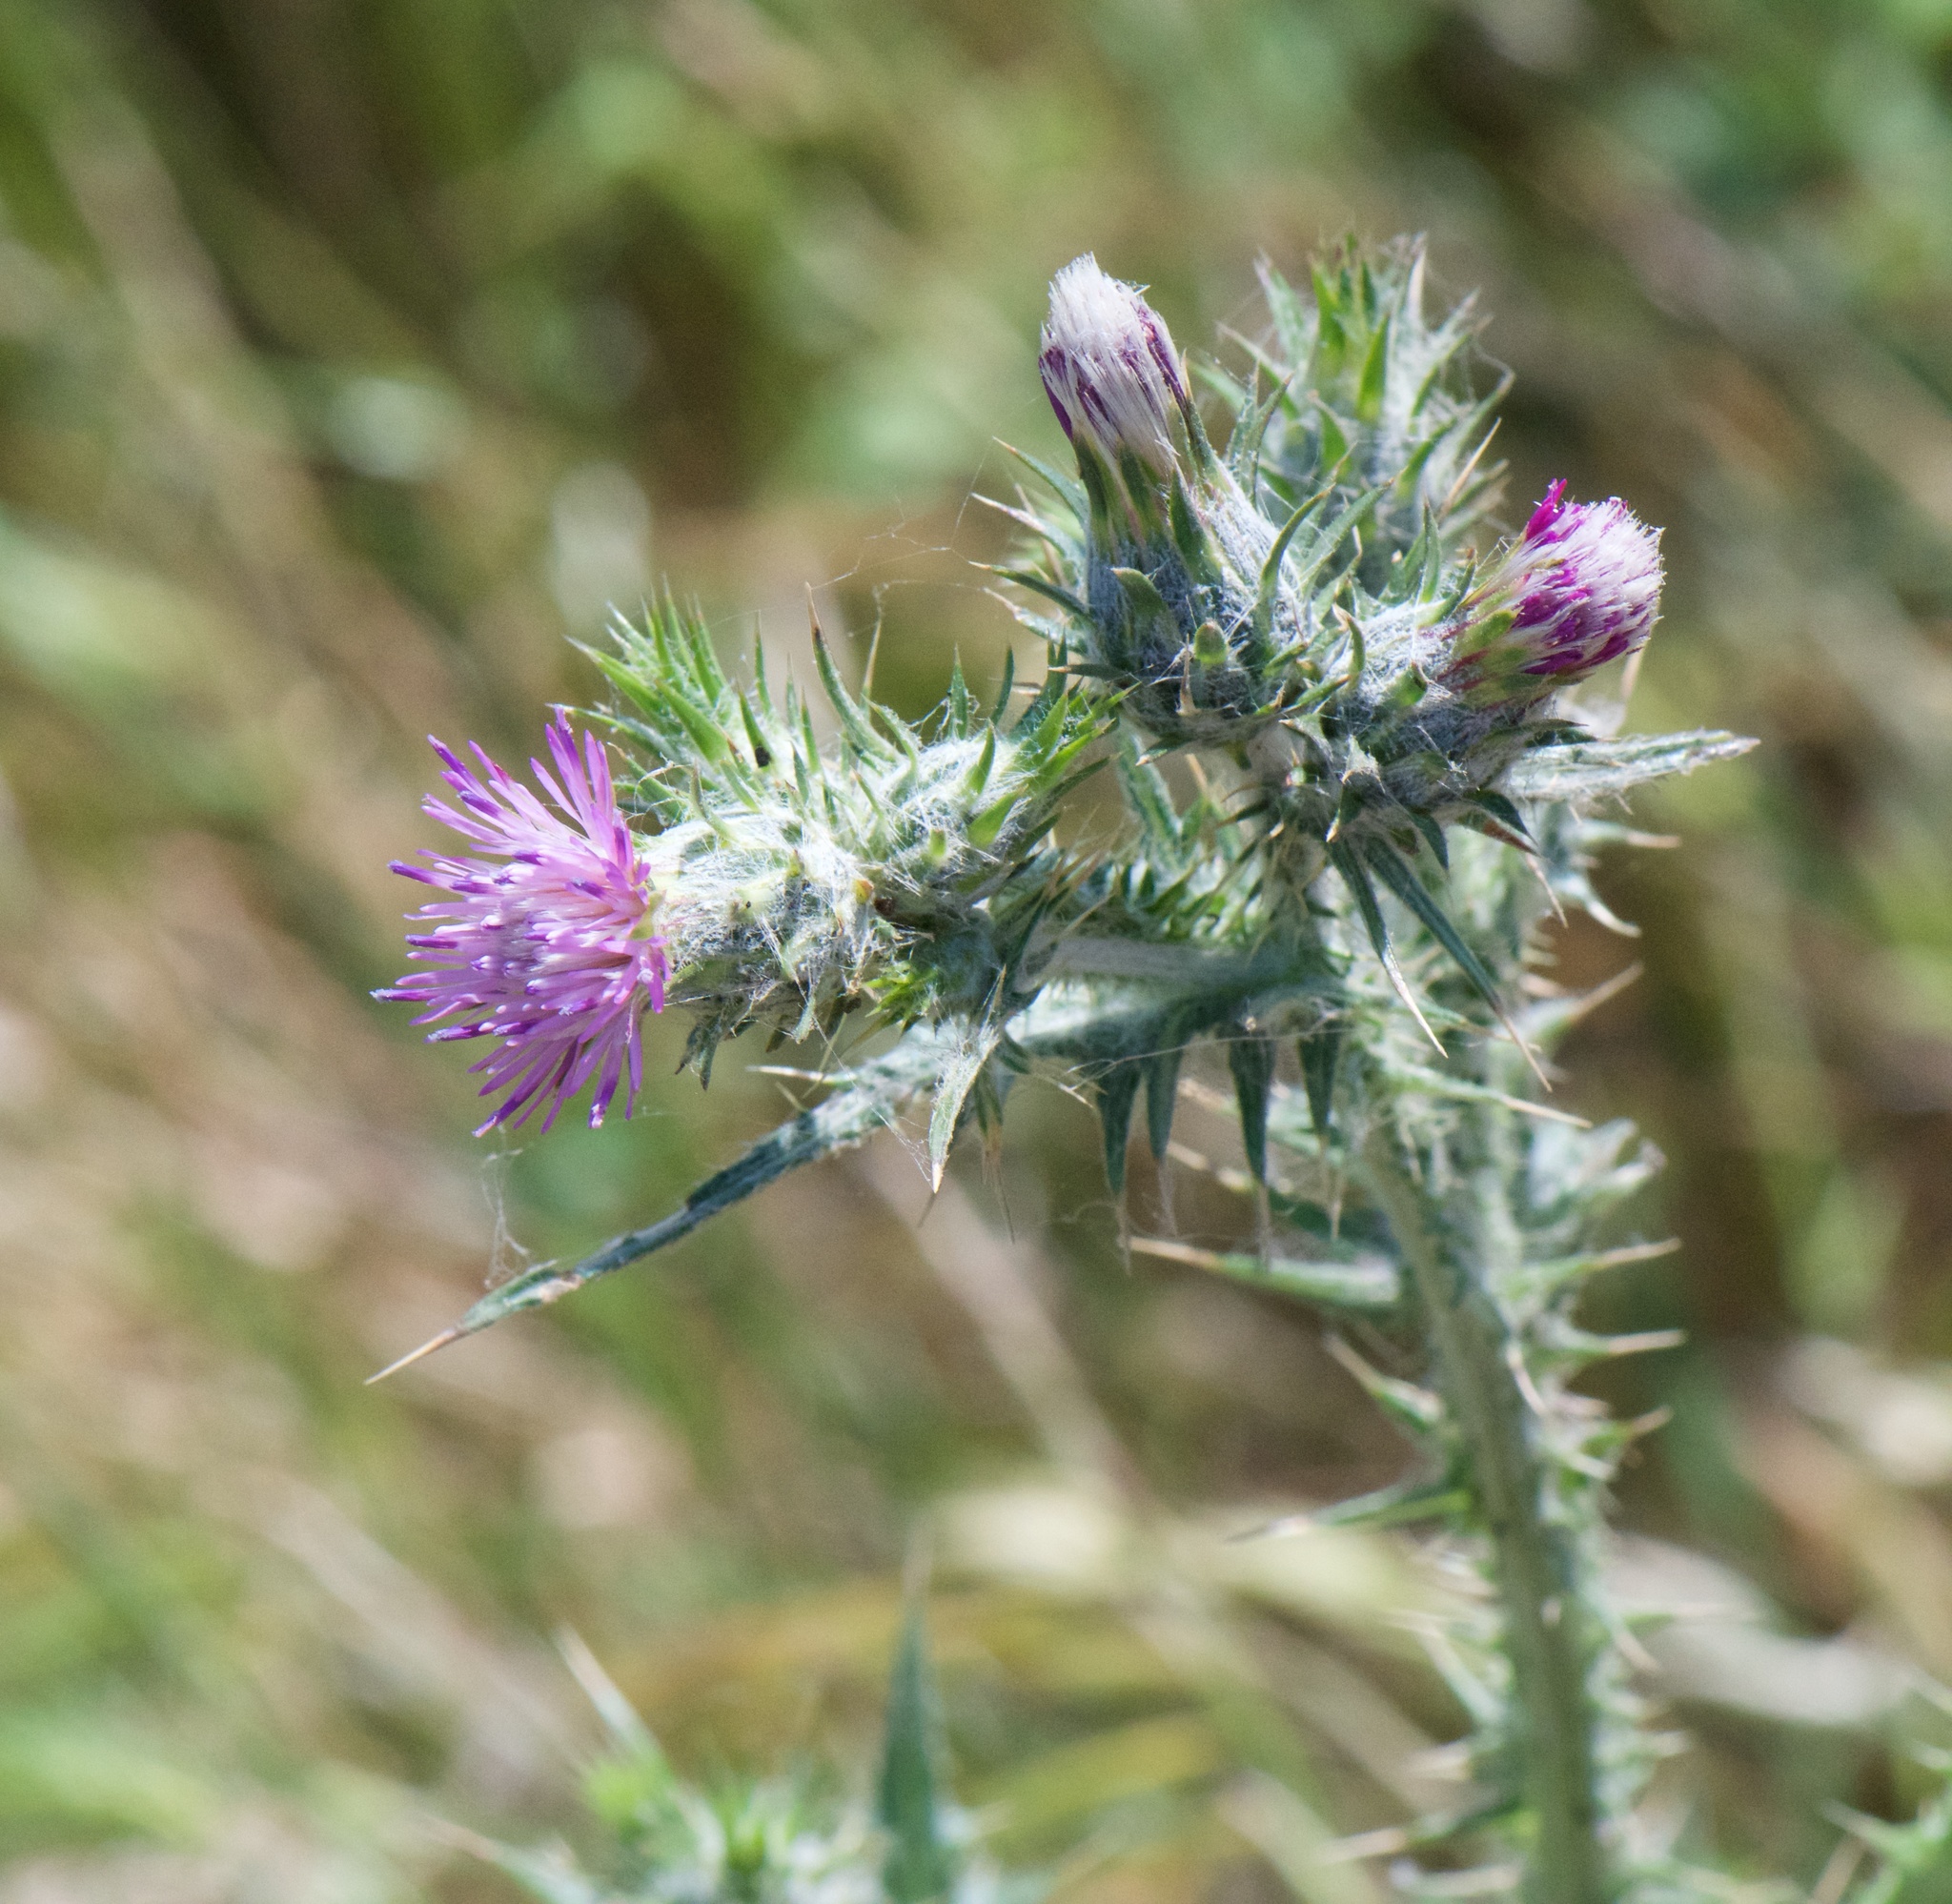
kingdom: Plantae
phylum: Tracheophyta
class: Magnoliopsida
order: Asterales
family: Asteraceae
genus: Carduus
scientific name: Carduus pycnocephalus
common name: Plymouth thistle
